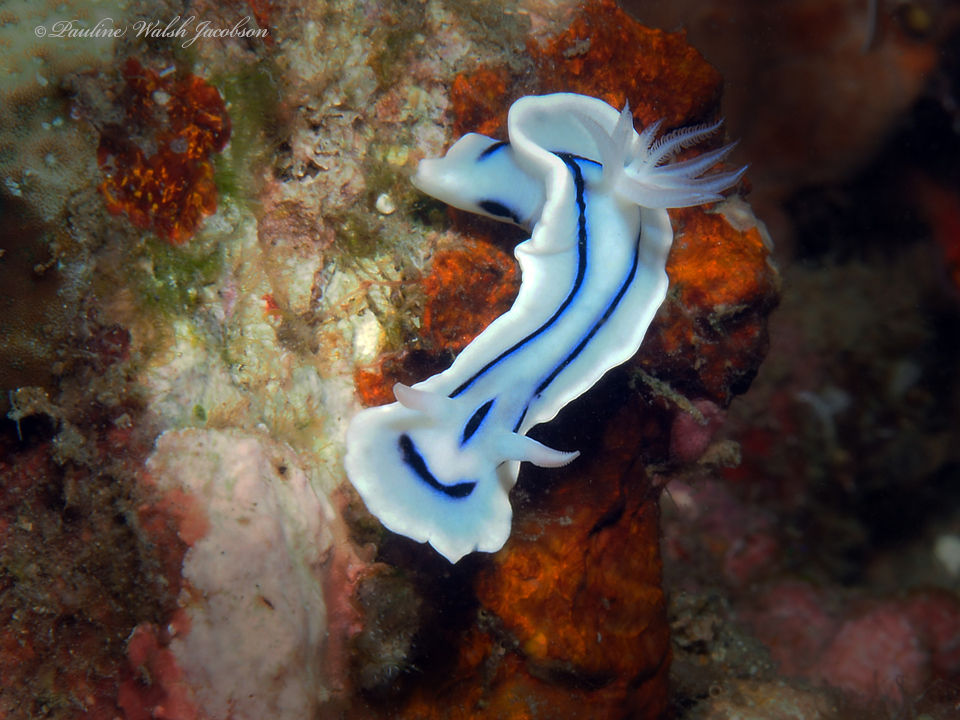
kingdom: Animalia
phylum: Mollusca
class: Gastropoda
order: Nudibranchia
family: Chromodorididae
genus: Chromodoris
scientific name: Chromodoris lochi
